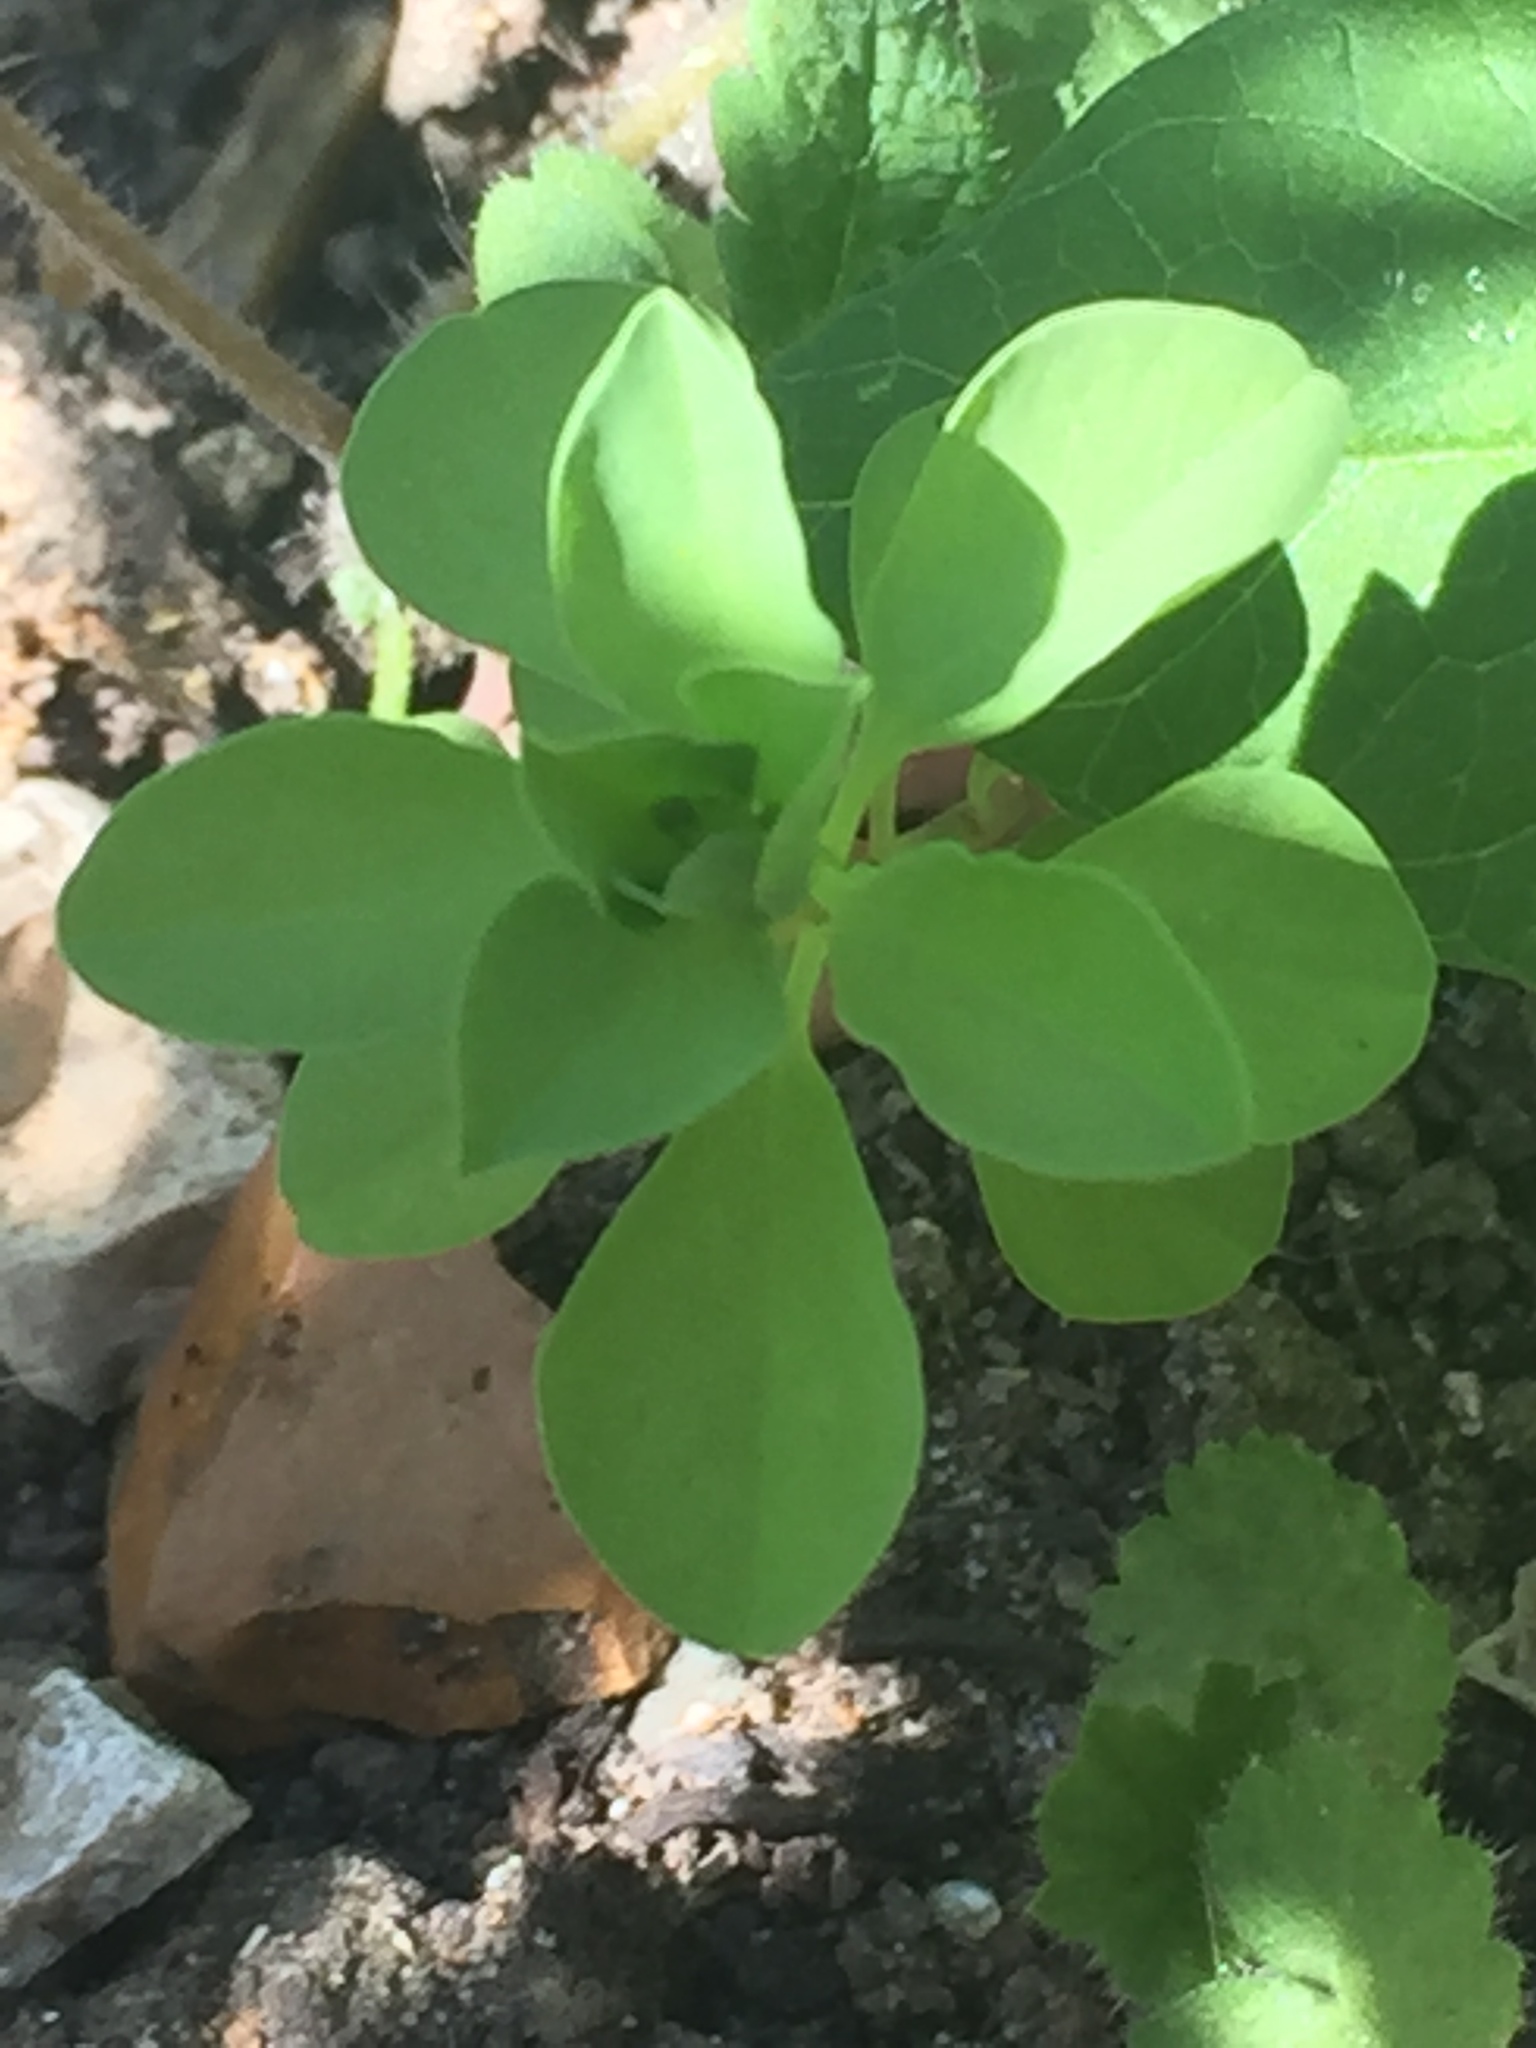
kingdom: Plantae
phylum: Tracheophyta
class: Magnoliopsida
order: Malpighiales
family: Euphorbiaceae
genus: Euphorbia
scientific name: Euphorbia peplus
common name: Petty spurge
